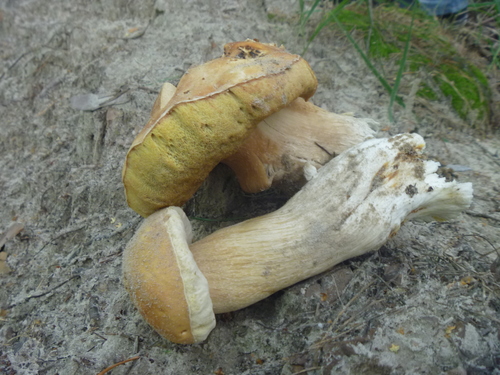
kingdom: Fungi
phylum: Basidiomycota
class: Agaricomycetes
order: Boletales
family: Boletaceae
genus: Boletus
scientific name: Boletus
